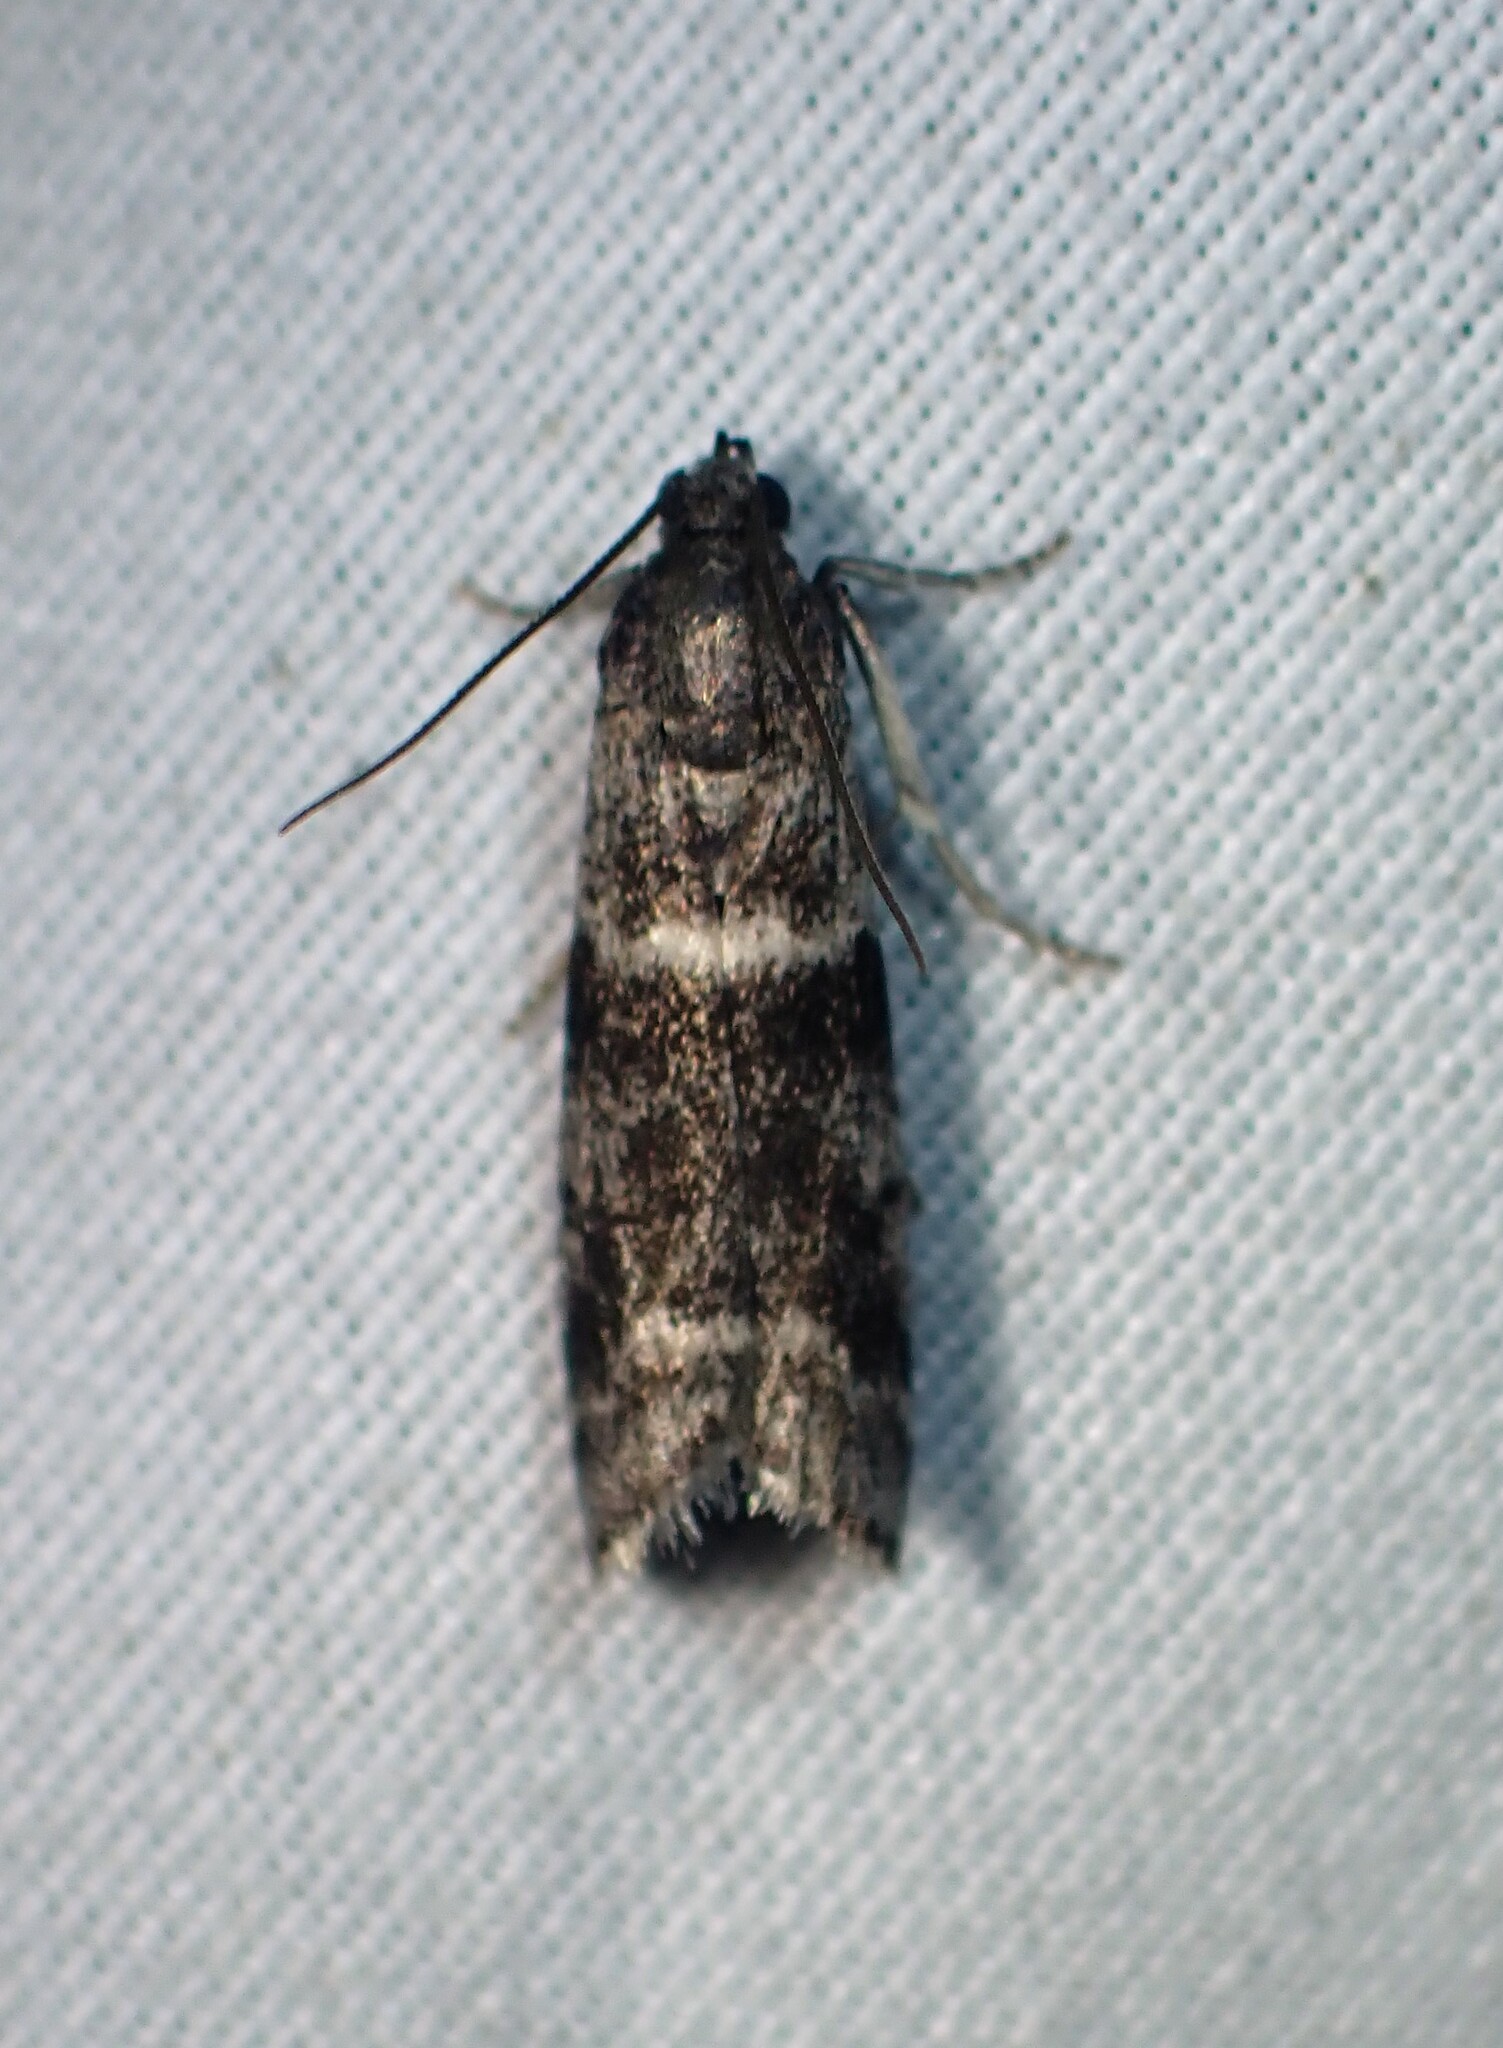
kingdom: Animalia
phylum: Arthropoda
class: Insecta
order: Lepidoptera
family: Pyralidae
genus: Apomyelois
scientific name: Apomyelois bistriatella
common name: Heath knot-horn
